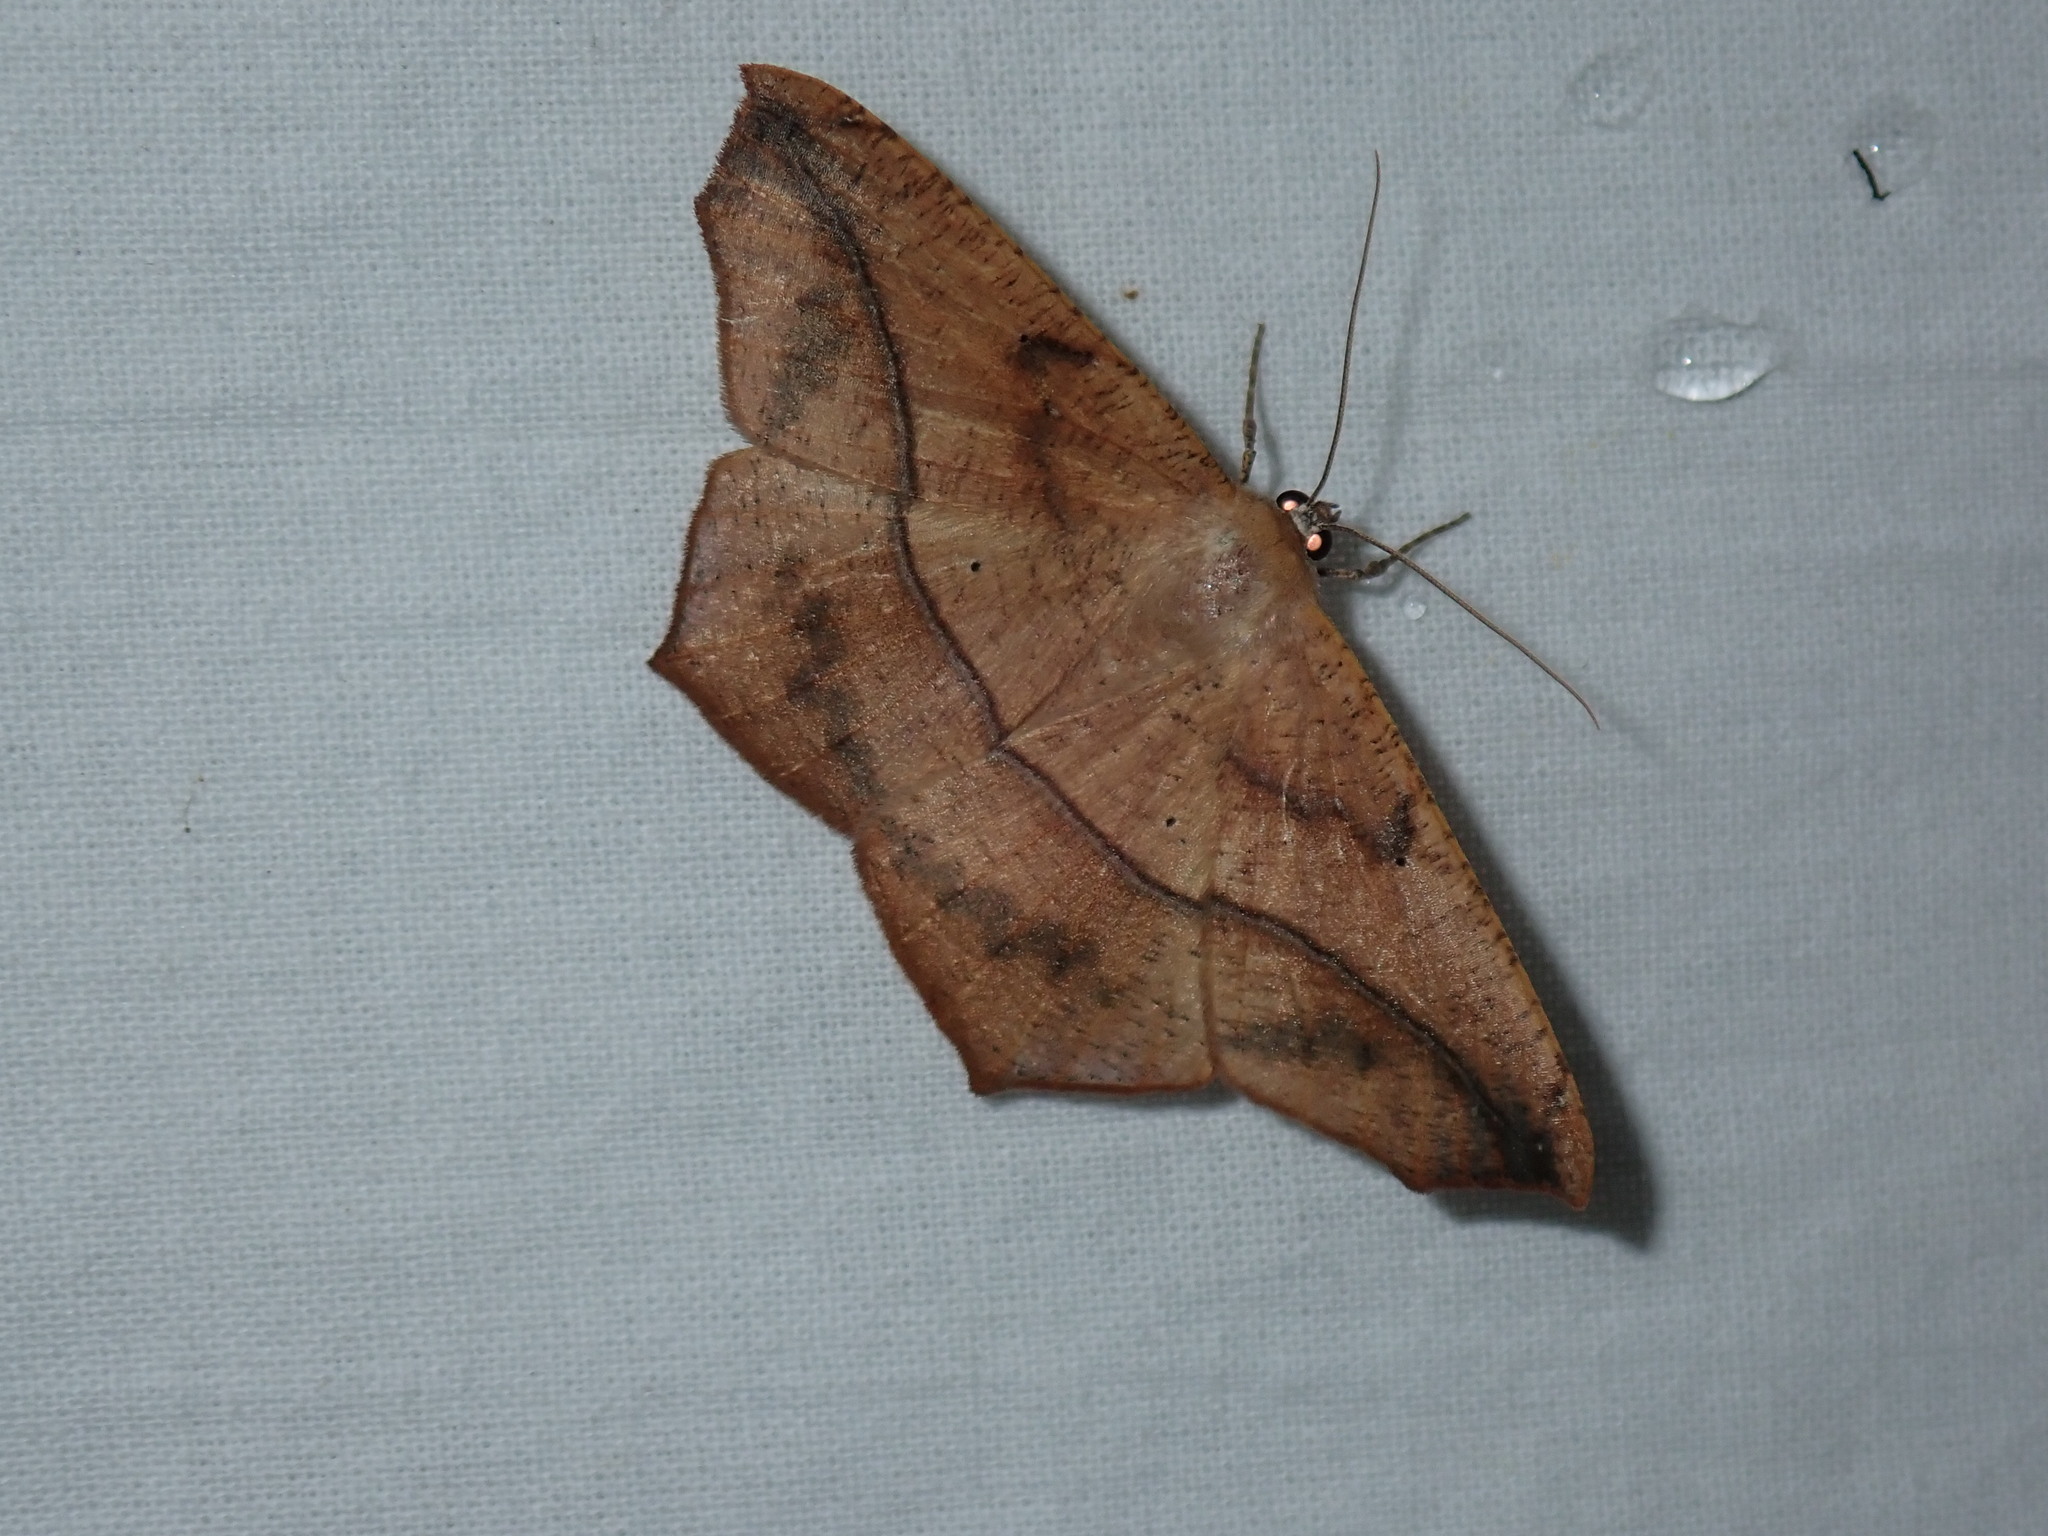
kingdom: Animalia
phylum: Arthropoda
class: Insecta
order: Lepidoptera
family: Geometridae
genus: Prochoerodes
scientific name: Prochoerodes lineola
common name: Large maple spanworm
